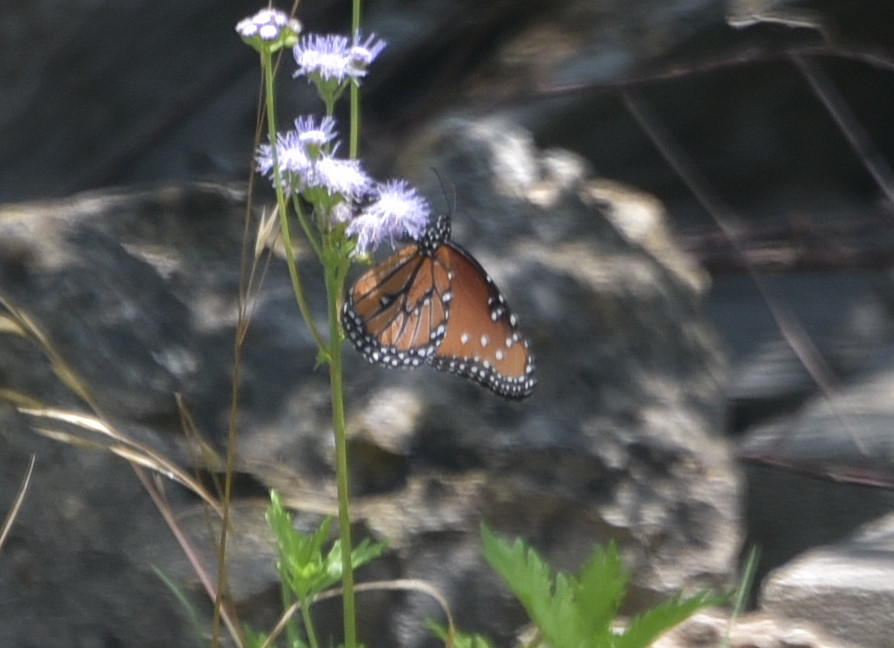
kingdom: Animalia
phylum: Arthropoda
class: Insecta
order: Lepidoptera
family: Nymphalidae
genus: Danaus
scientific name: Danaus gilippus
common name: Queen
